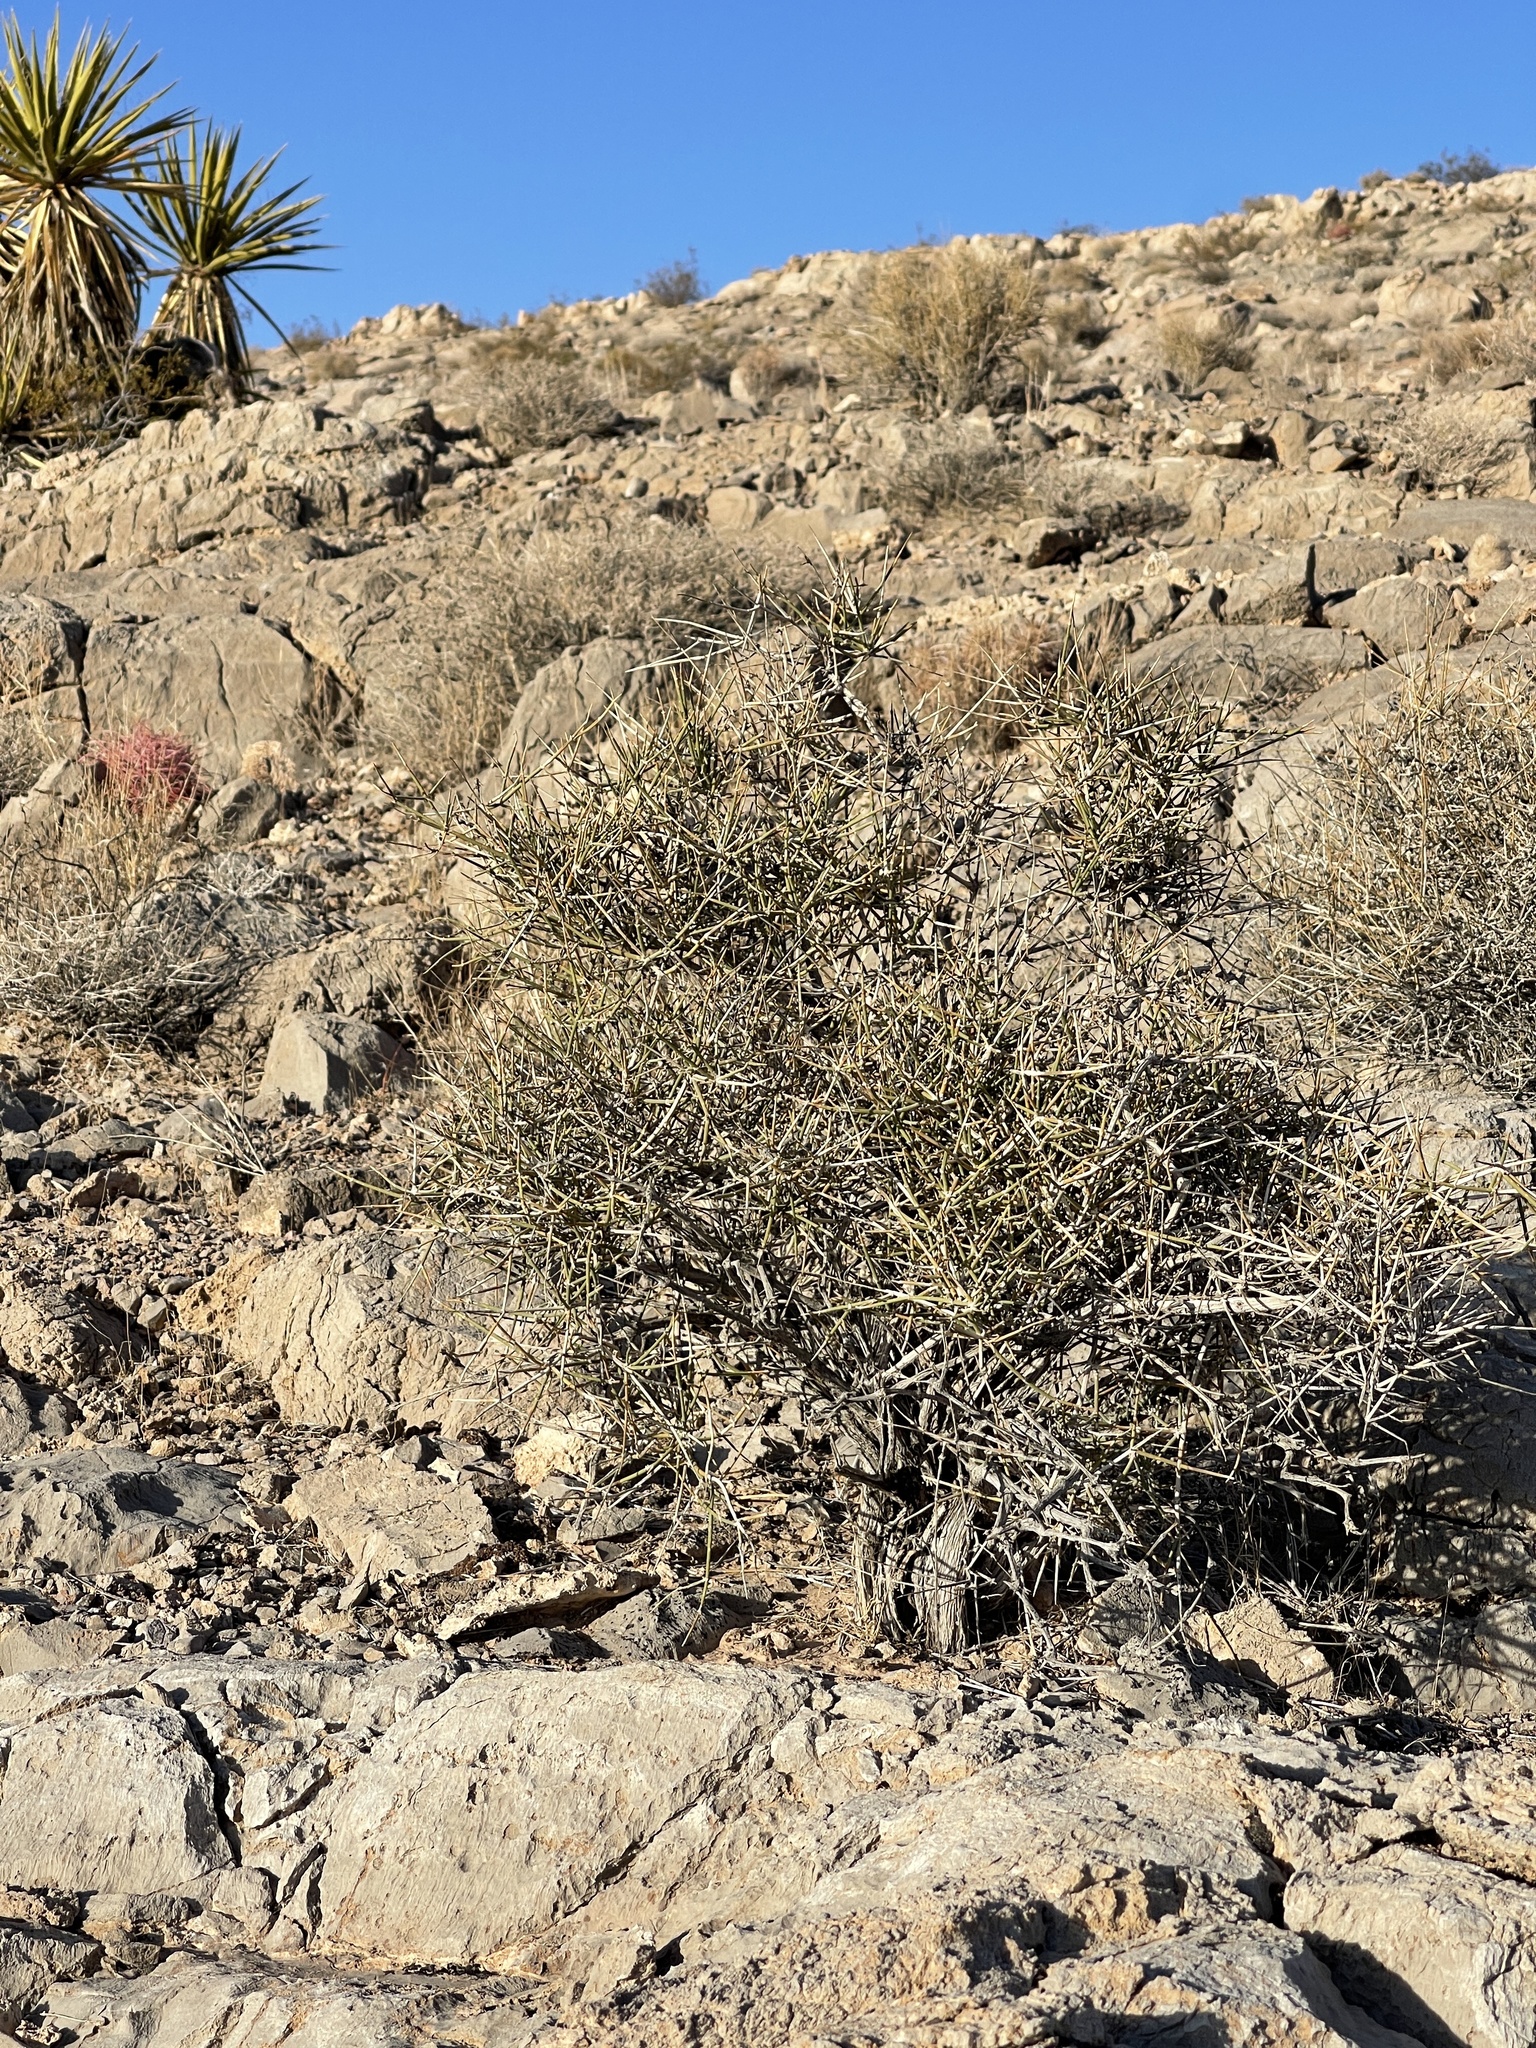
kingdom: Plantae
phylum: Tracheophyta
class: Gnetopsida
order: Ephedrales
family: Ephedraceae
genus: Ephedra
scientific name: Ephedra nevadensis
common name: Gray ephedra
